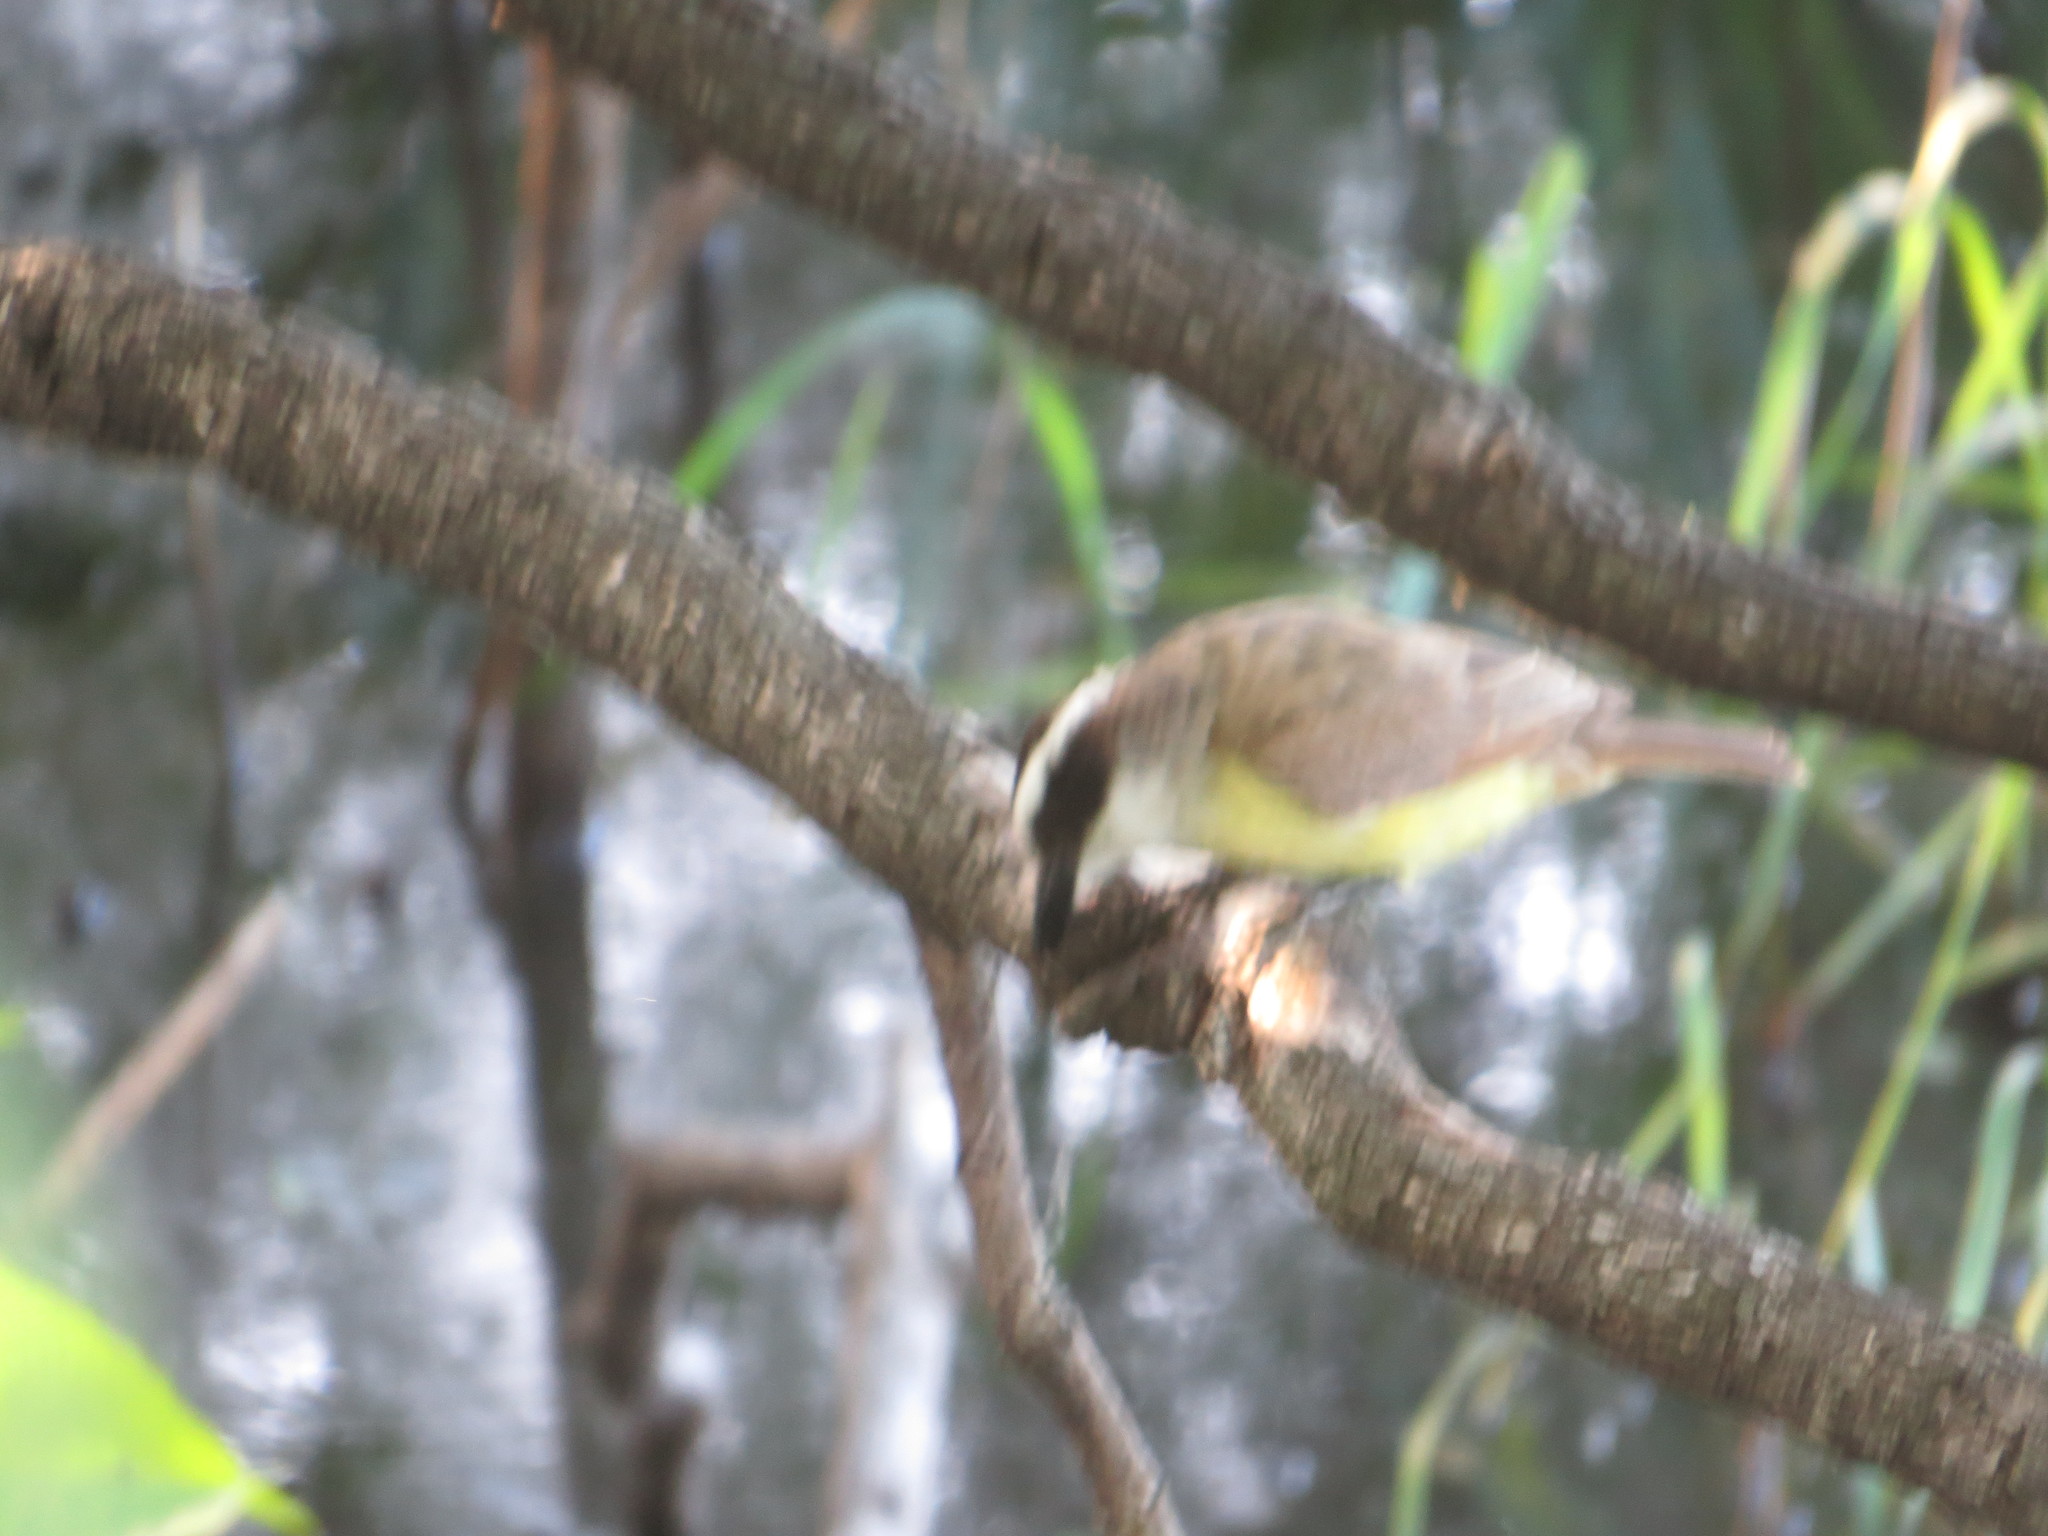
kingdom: Animalia
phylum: Chordata
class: Aves
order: Passeriformes
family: Tyrannidae
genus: Pitangus
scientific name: Pitangus sulphuratus
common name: Great kiskadee
